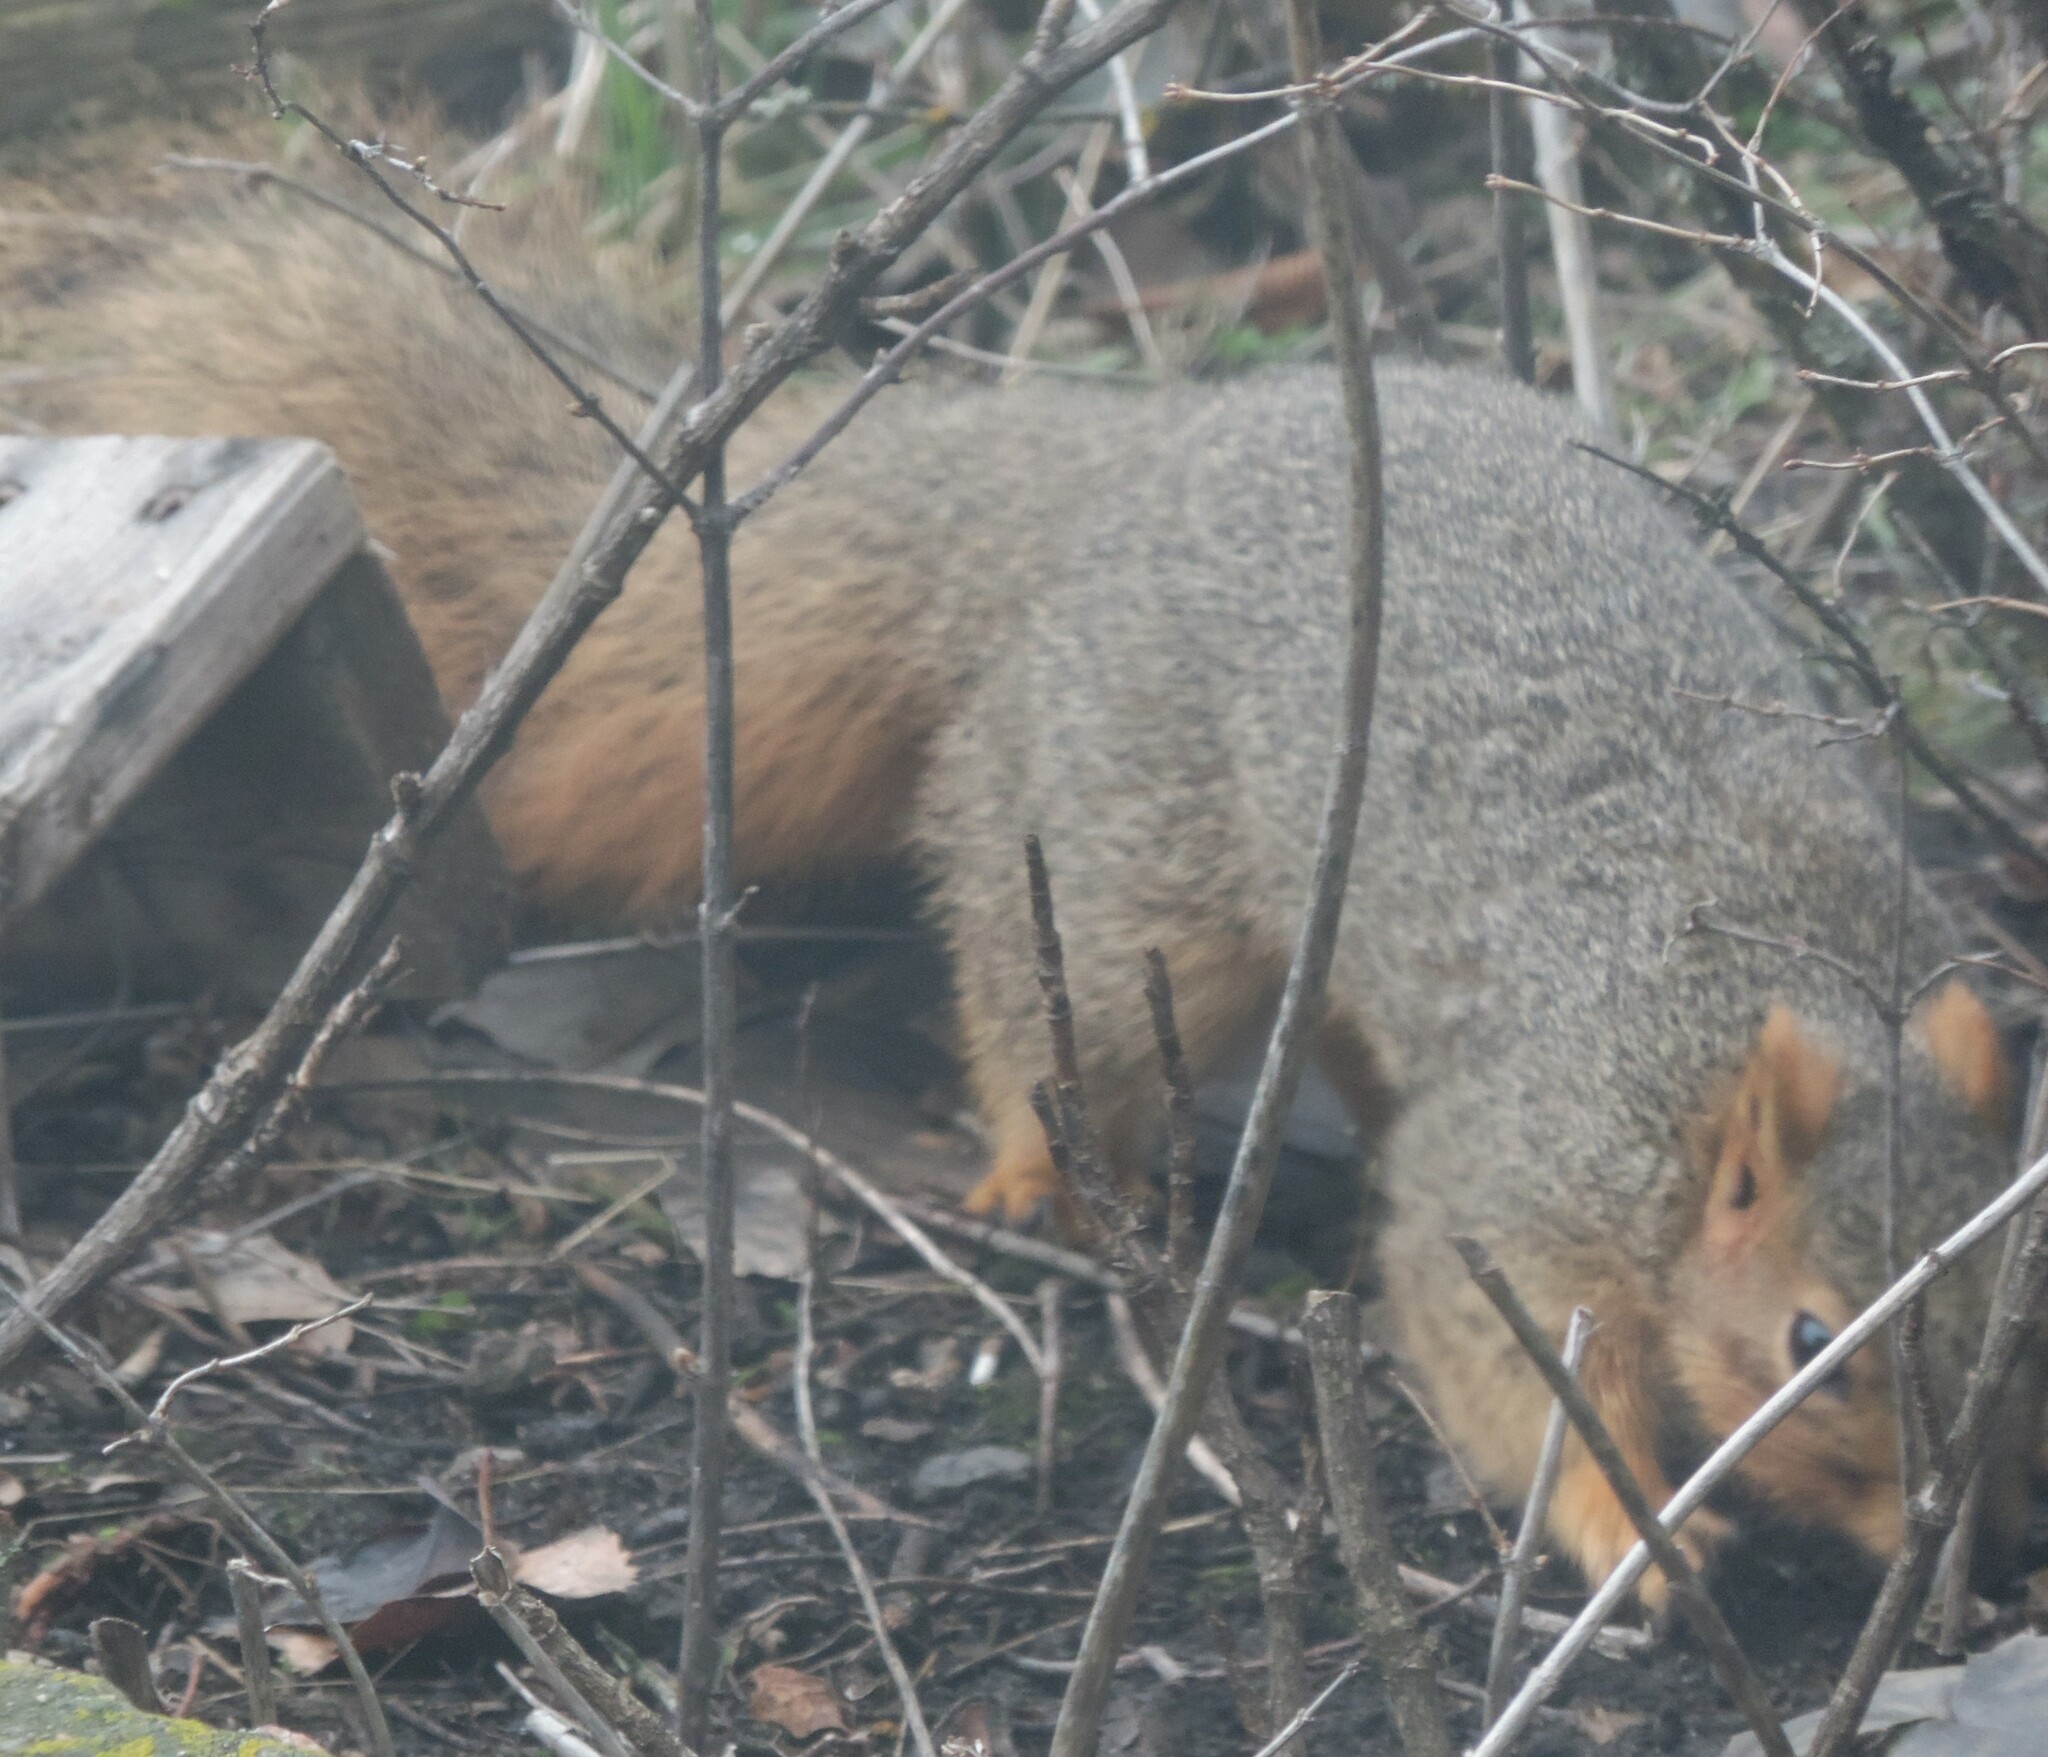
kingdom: Animalia
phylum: Chordata
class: Mammalia
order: Rodentia
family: Sciuridae
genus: Sciurus
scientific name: Sciurus niger
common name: Fox squirrel
